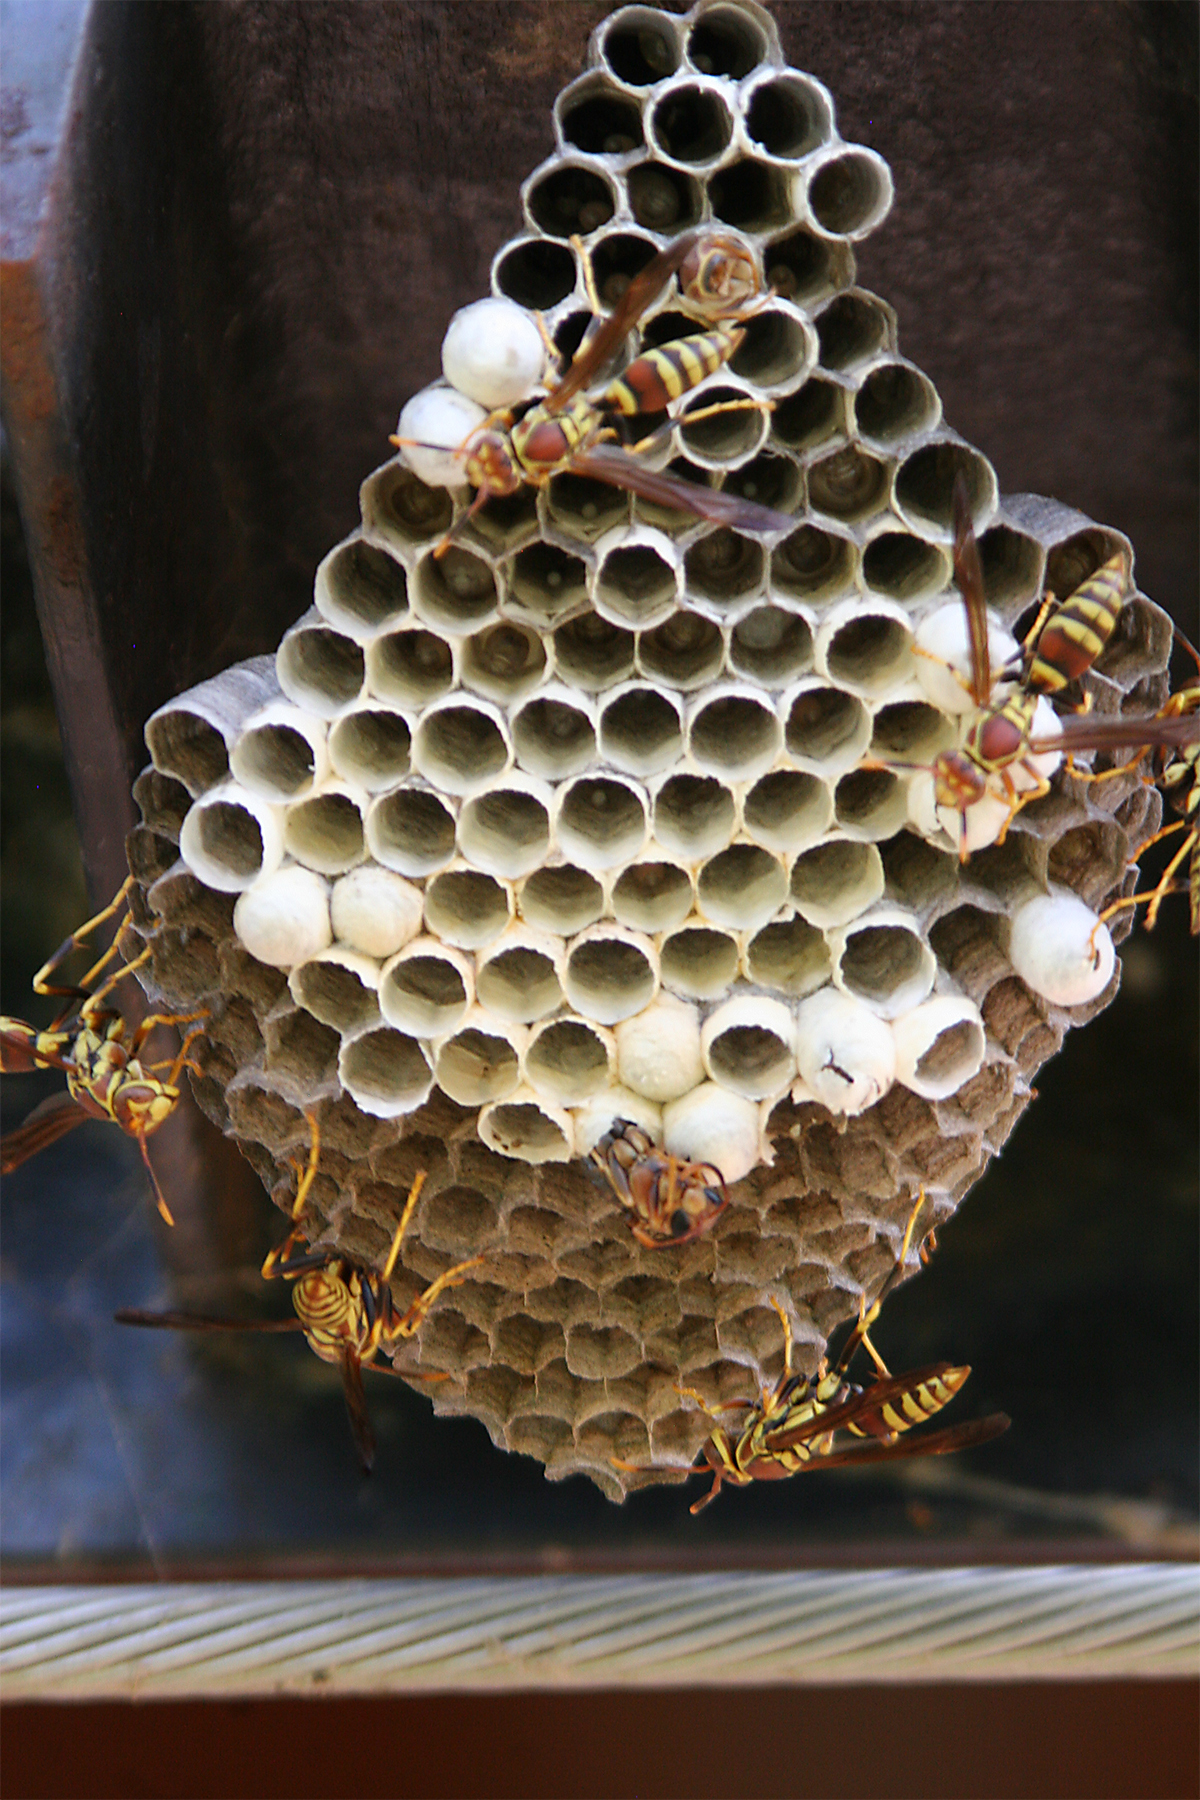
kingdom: Animalia
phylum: Arthropoda
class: Insecta
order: Hymenoptera
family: Eumenidae
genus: Polistes
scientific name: Polistes exclamans
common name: Paper wasp
